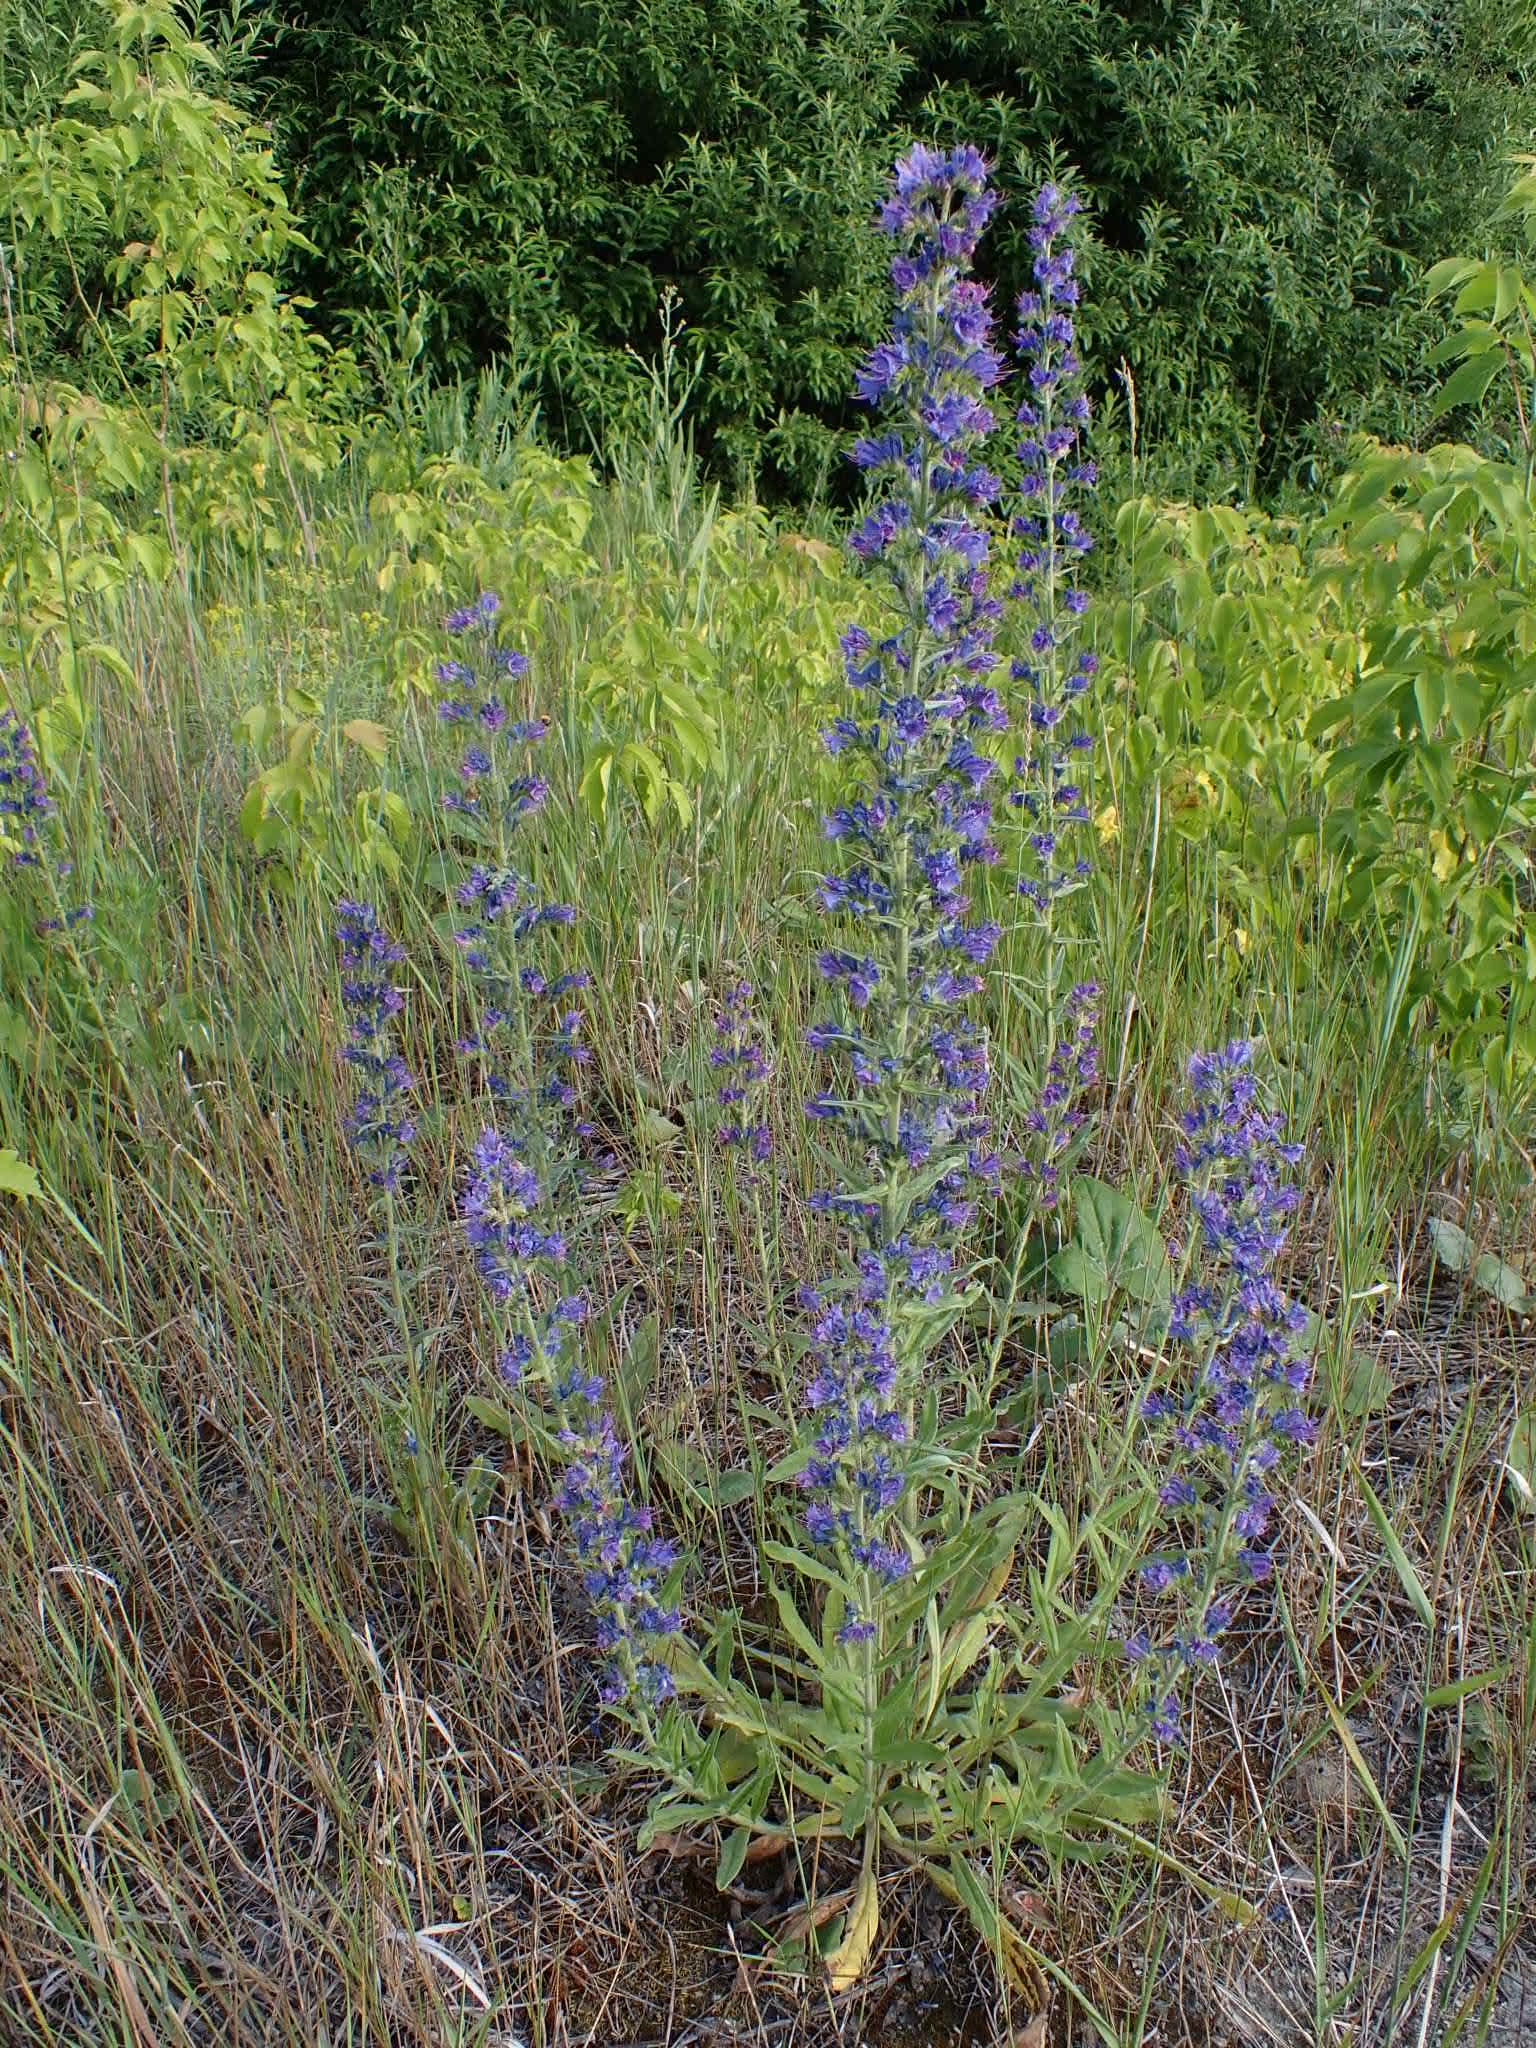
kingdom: Plantae
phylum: Tracheophyta
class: Magnoliopsida
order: Boraginales
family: Boraginaceae
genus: Echium
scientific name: Echium vulgare
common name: Common viper's bugloss
